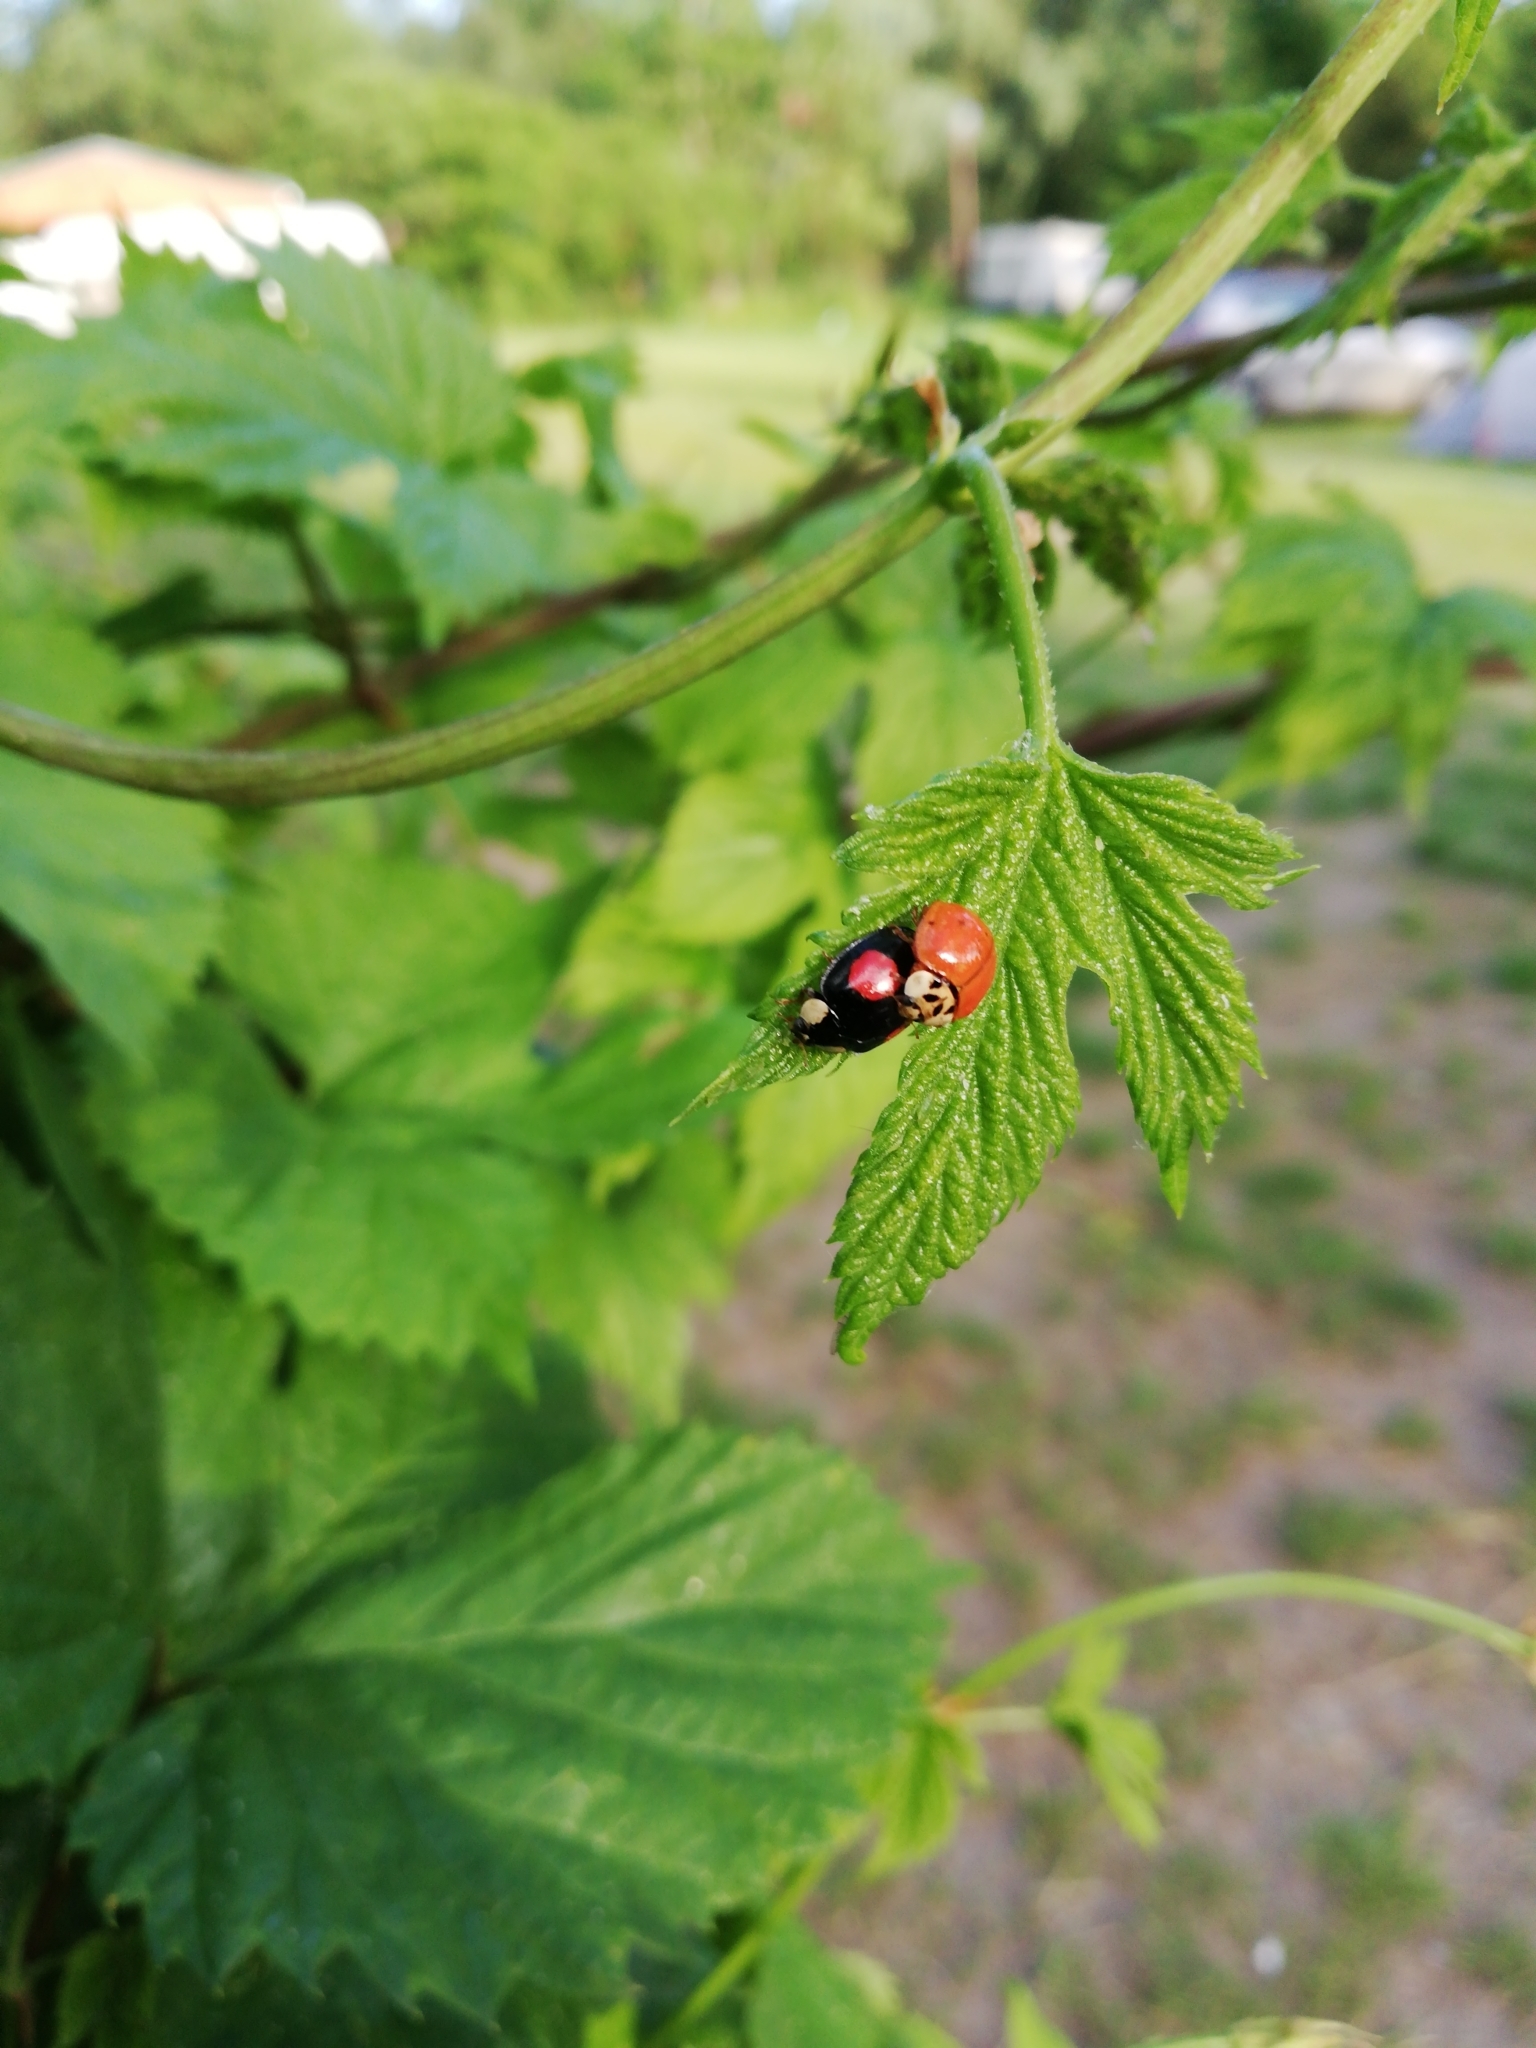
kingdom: Animalia
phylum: Arthropoda
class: Insecta
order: Coleoptera
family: Coccinellidae
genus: Harmonia
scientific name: Harmonia axyridis
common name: Harlequin ladybird
